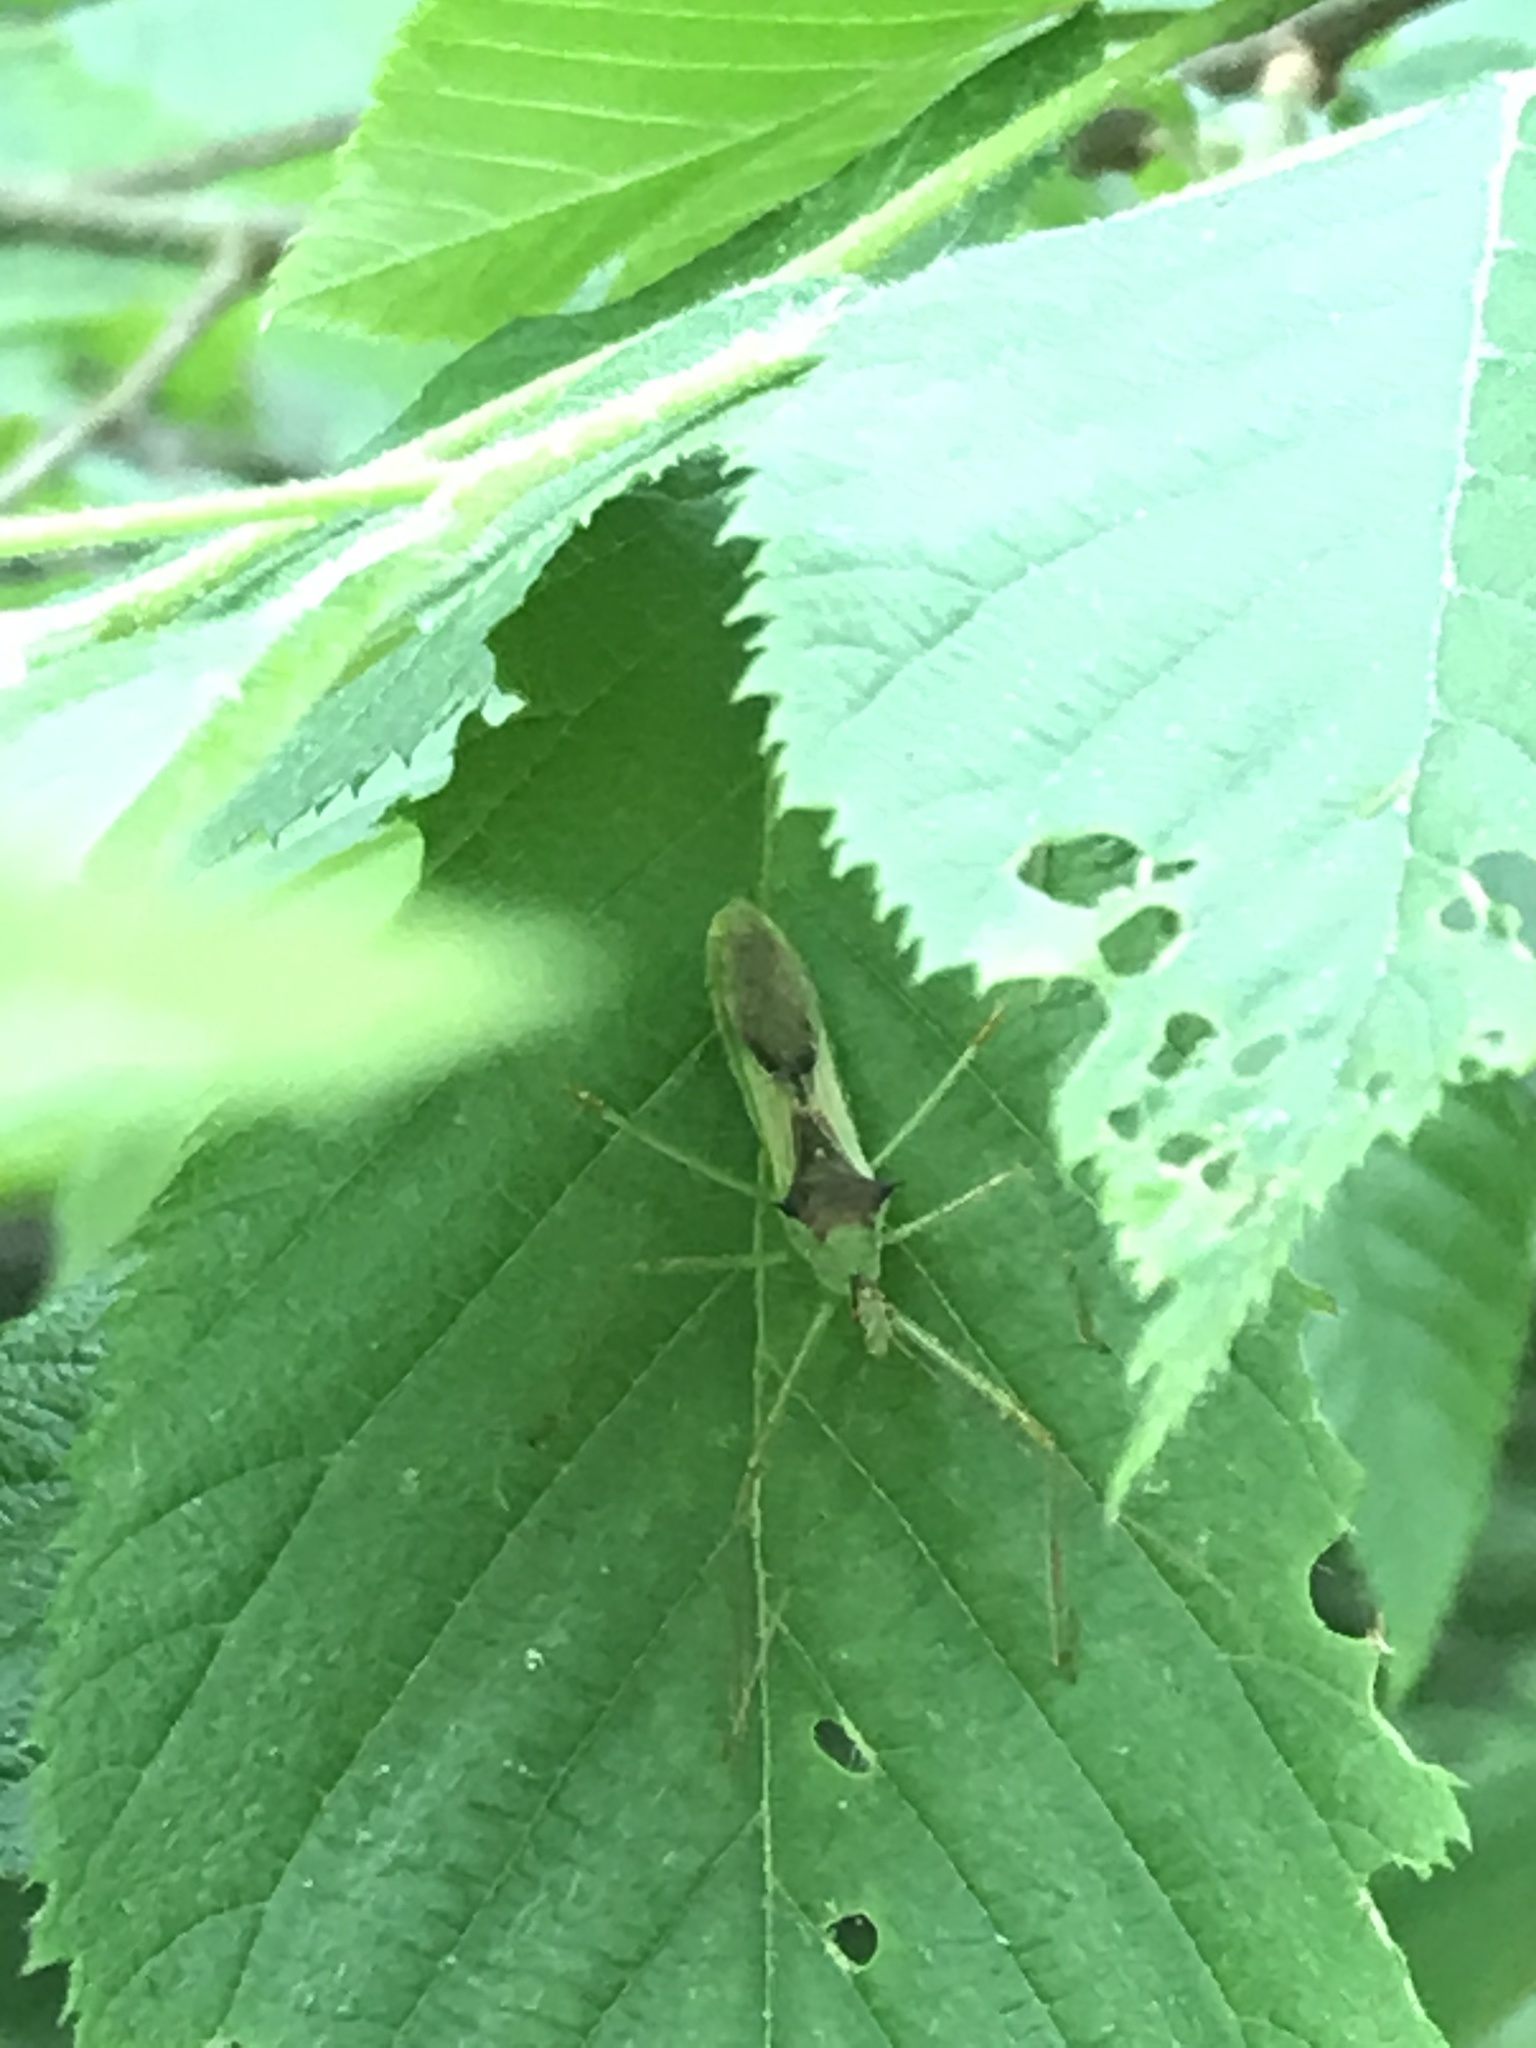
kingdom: Animalia
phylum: Arthropoda
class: Insecta
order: Hemiptera
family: Reduviidae
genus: Zelus
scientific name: Zelus luridus
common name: Pale green assassin bug
